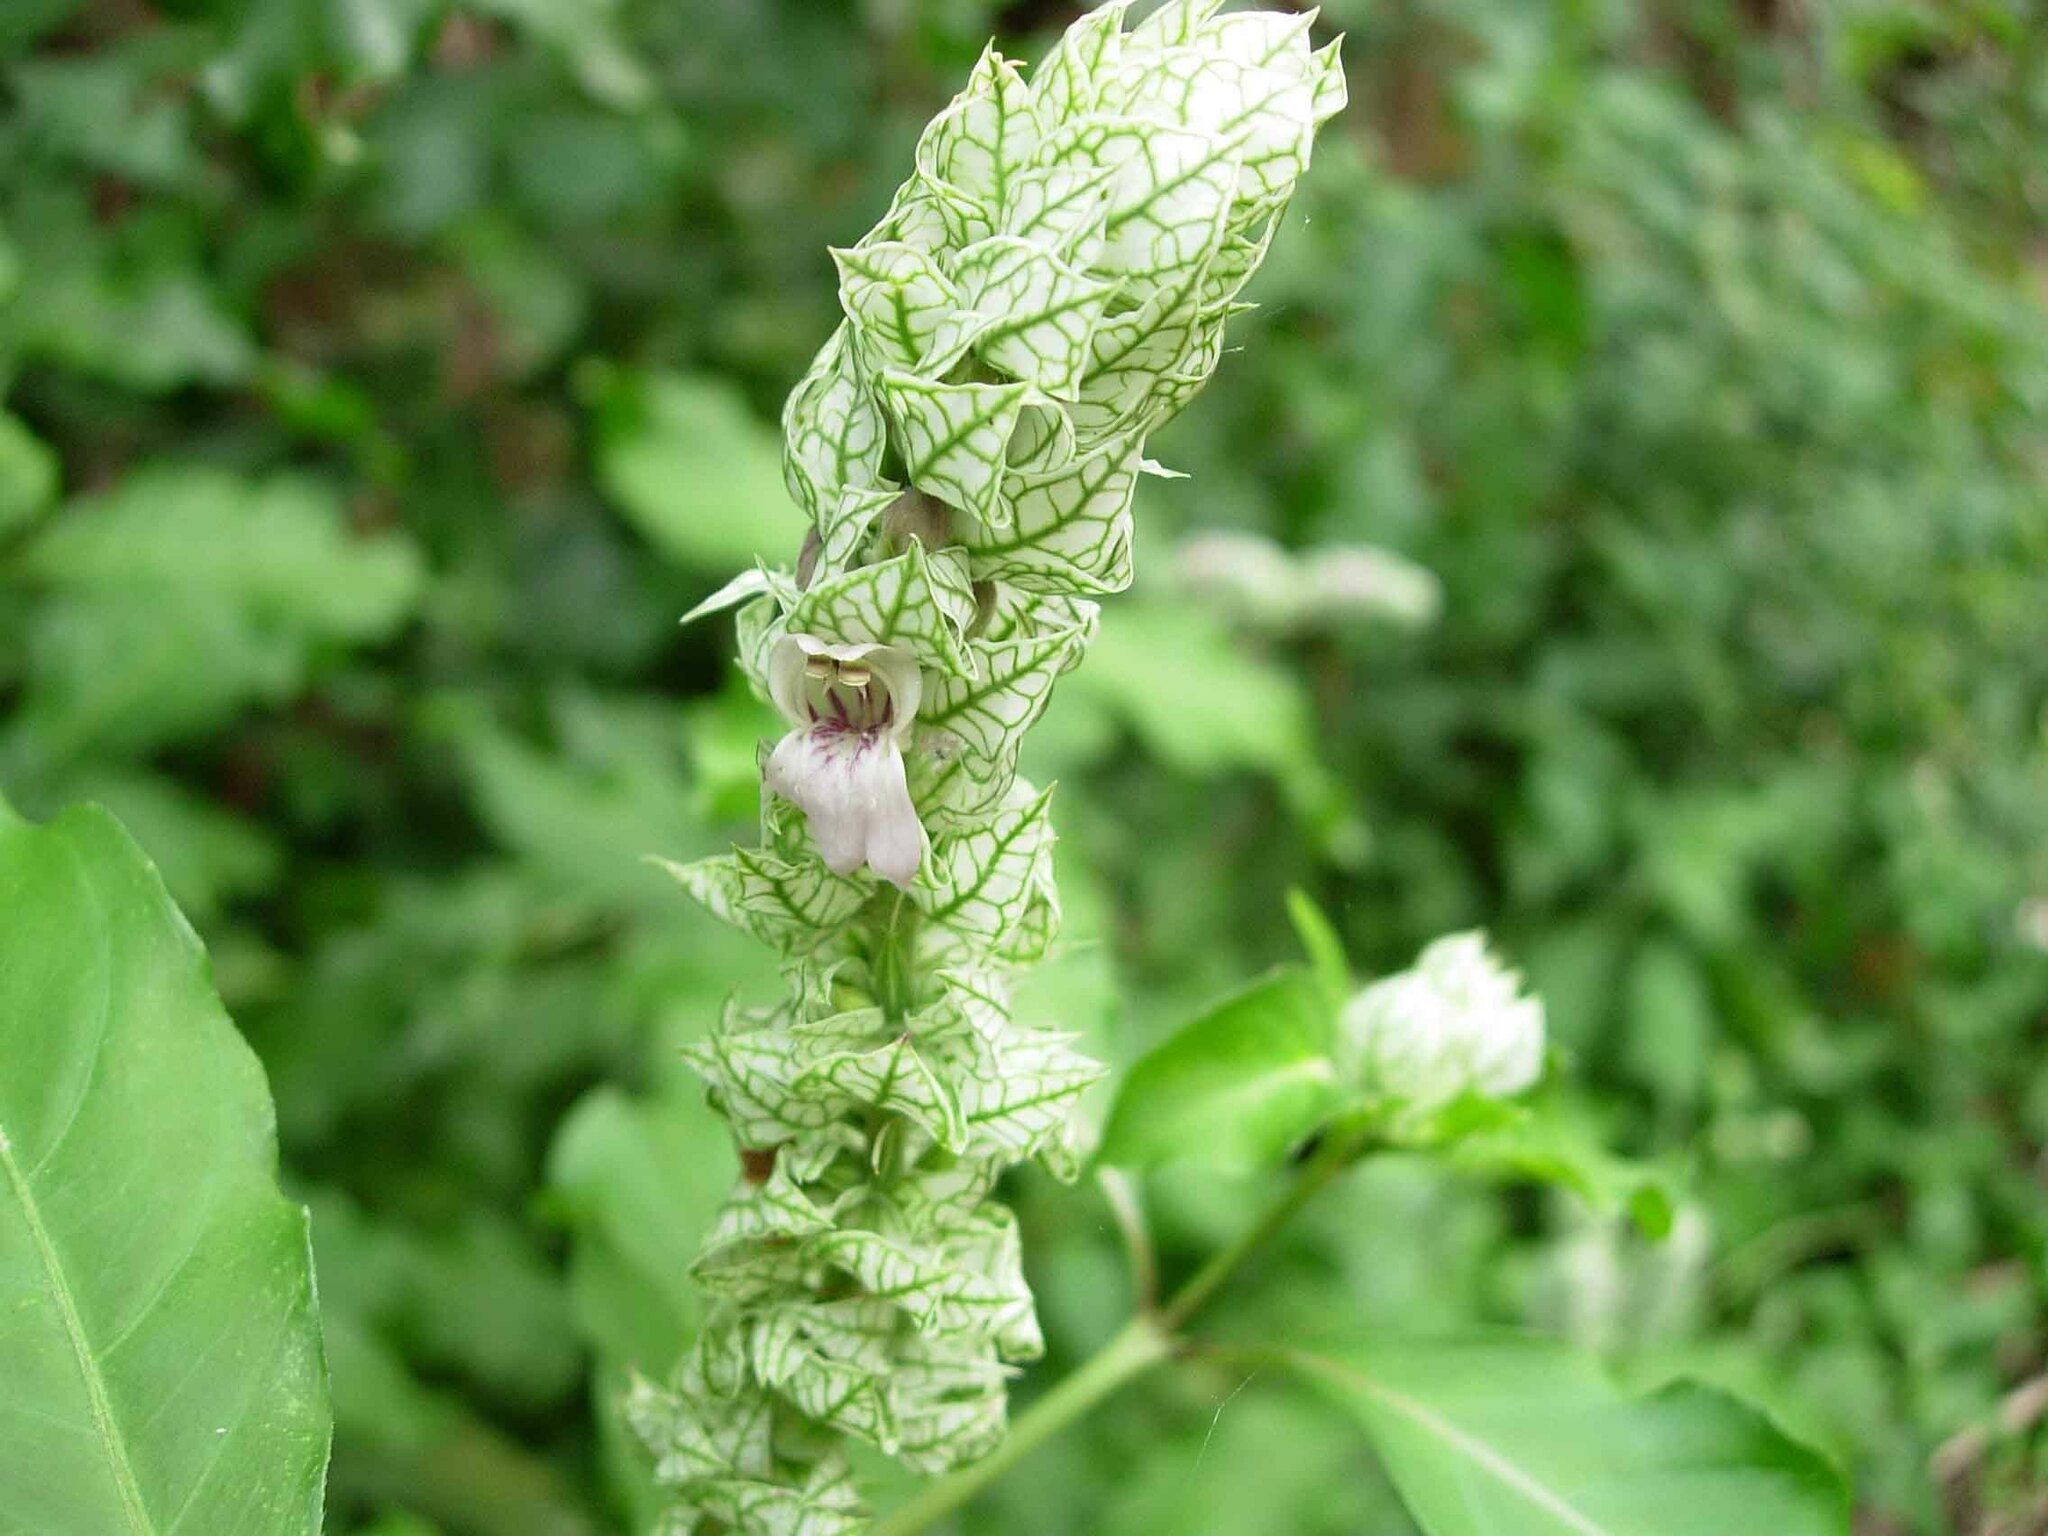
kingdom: Plantae
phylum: Tracheophyta
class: Magnoliopsida
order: Lamiales
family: Acanthaceae
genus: Justicia
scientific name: Justicia betonica
